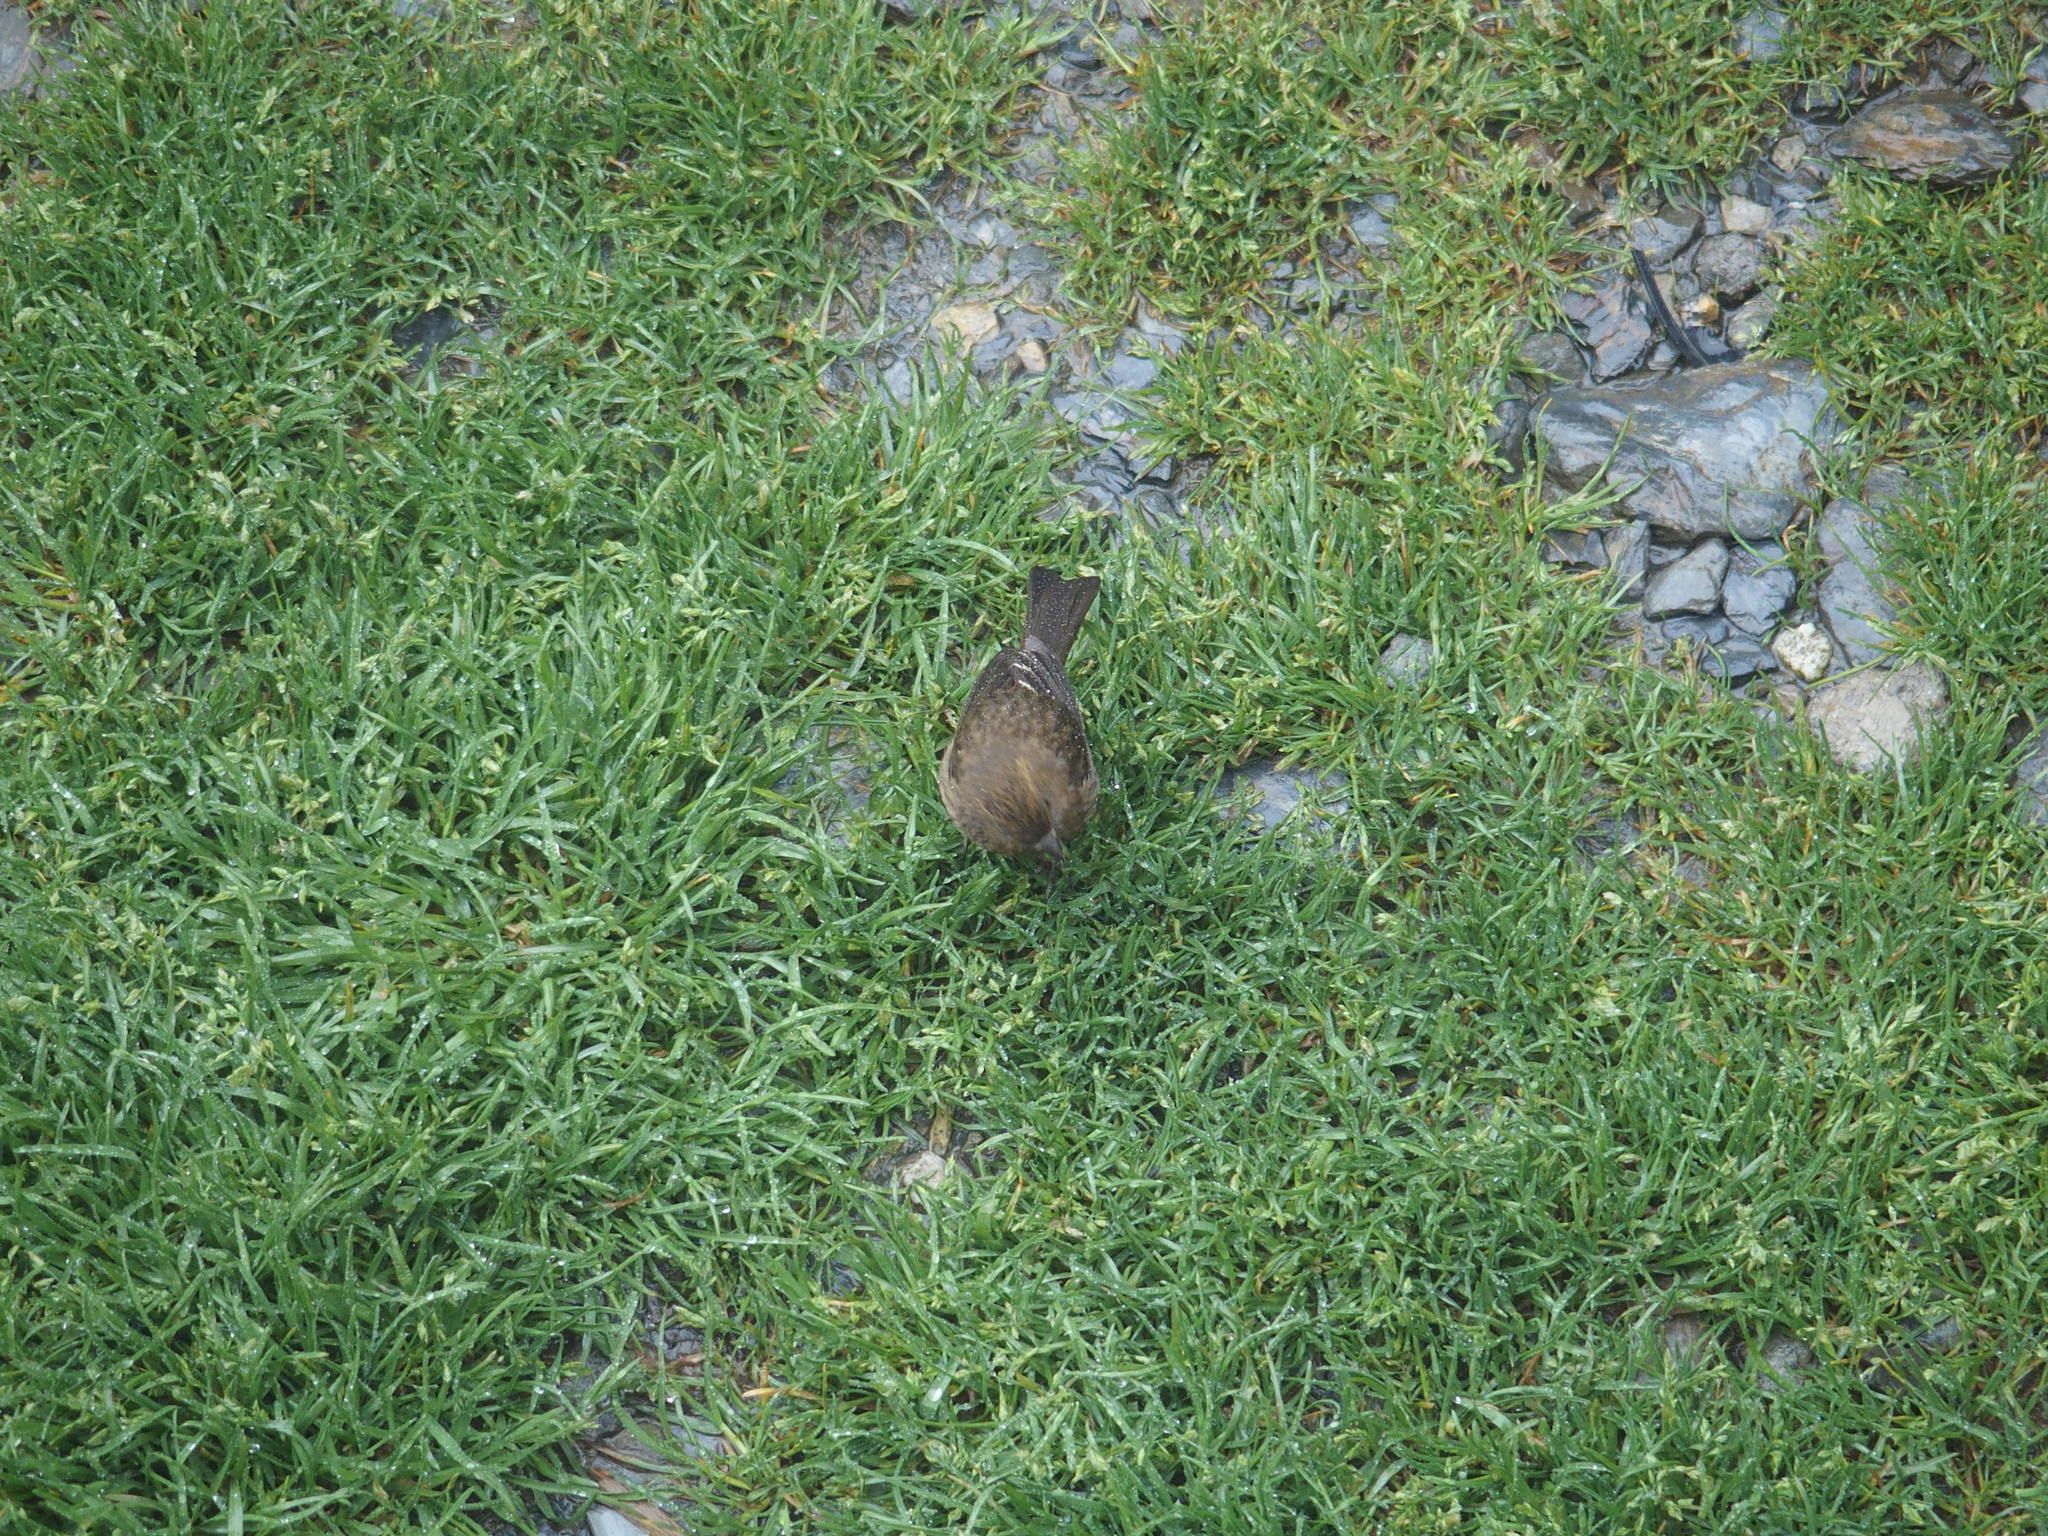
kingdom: Animalia
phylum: Chordata
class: Aves
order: Passeriformes
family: Fringillidae
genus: Carpodacus
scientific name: Carpodacus formosanus
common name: Taiwan rosefinch
